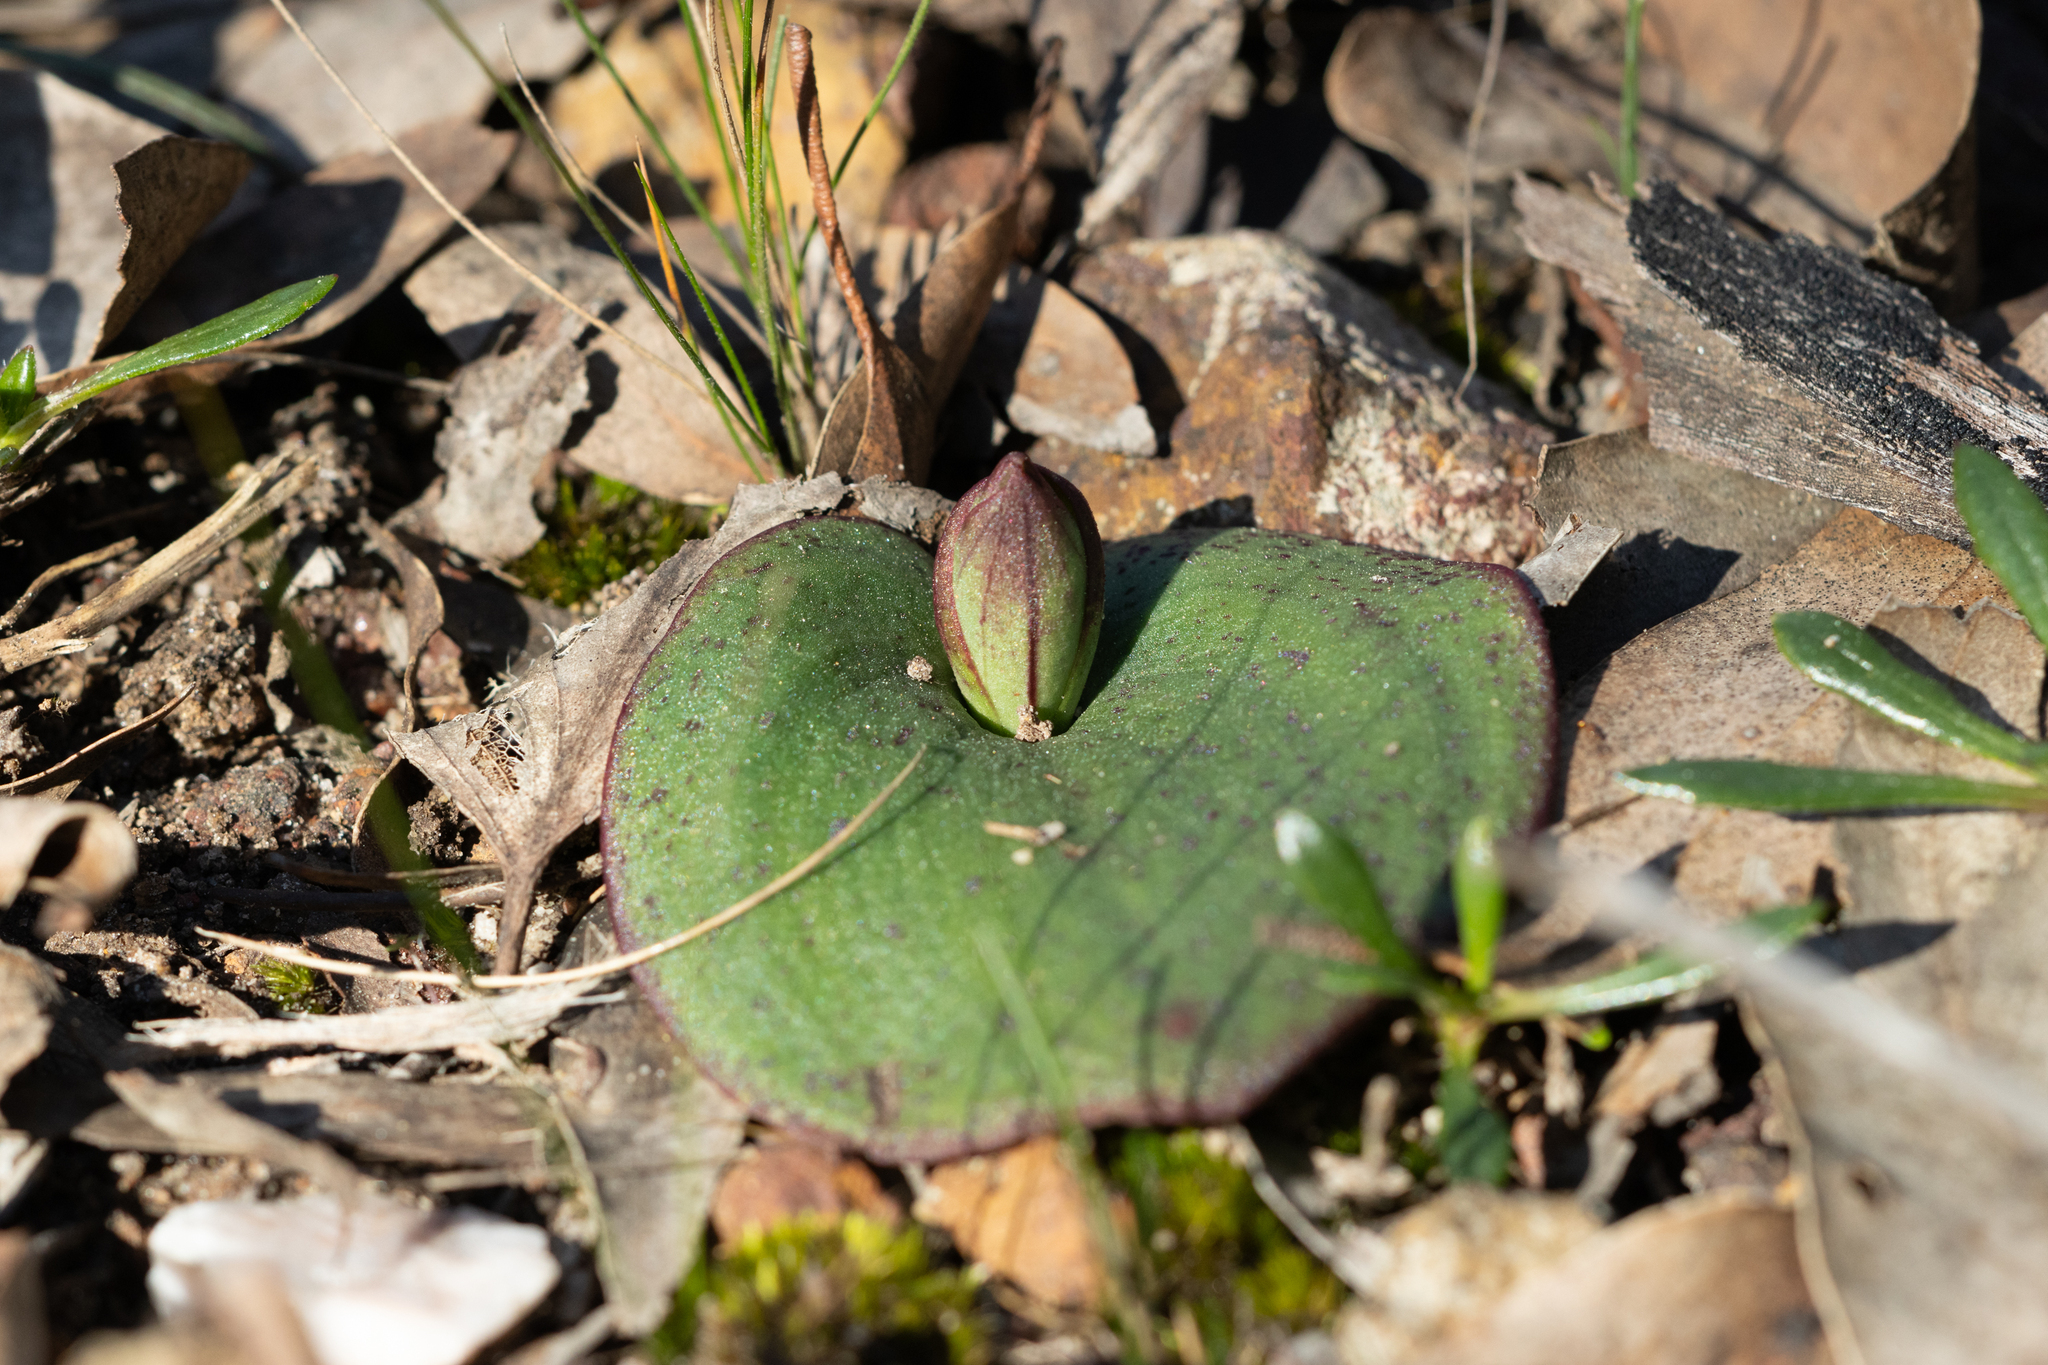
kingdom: Plantae
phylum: Tracheophyta
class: Liliopsida
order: Asparagales
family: Orchidaceae
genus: Pyrorchis
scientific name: Pyrorchis nigricans
